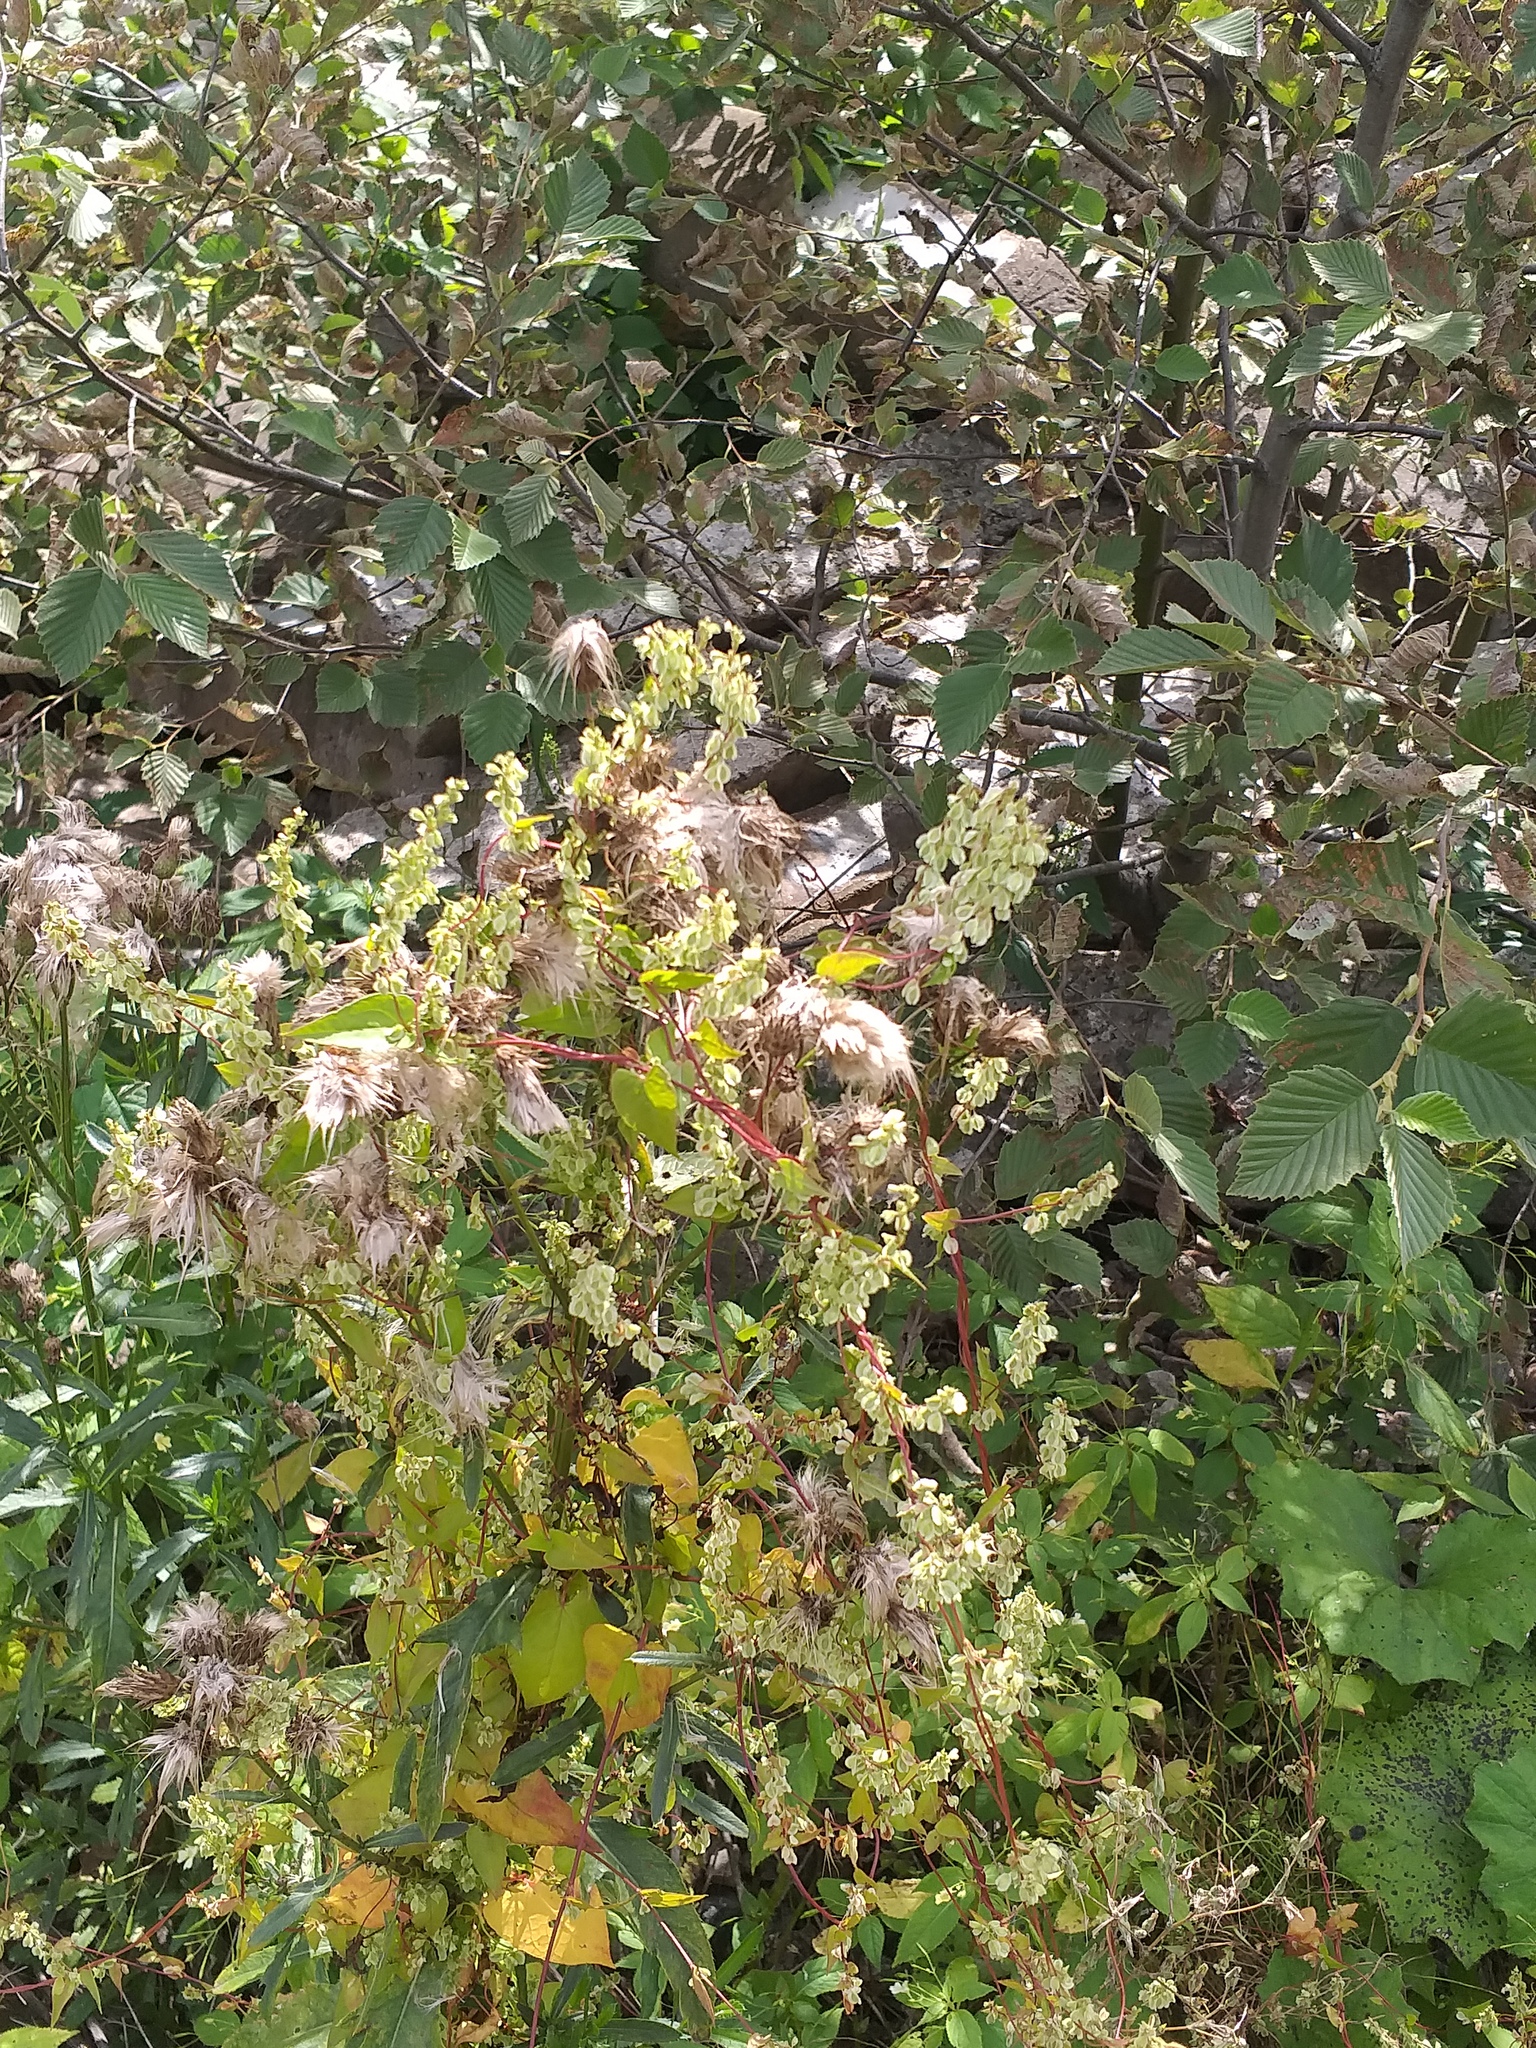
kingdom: Plantae
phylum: Tracheophyta
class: Magnoliopsida
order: Caryophyllales
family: Polygonaceae
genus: Fallopia
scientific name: Fallopia dumetorum
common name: Copse-bindweed
